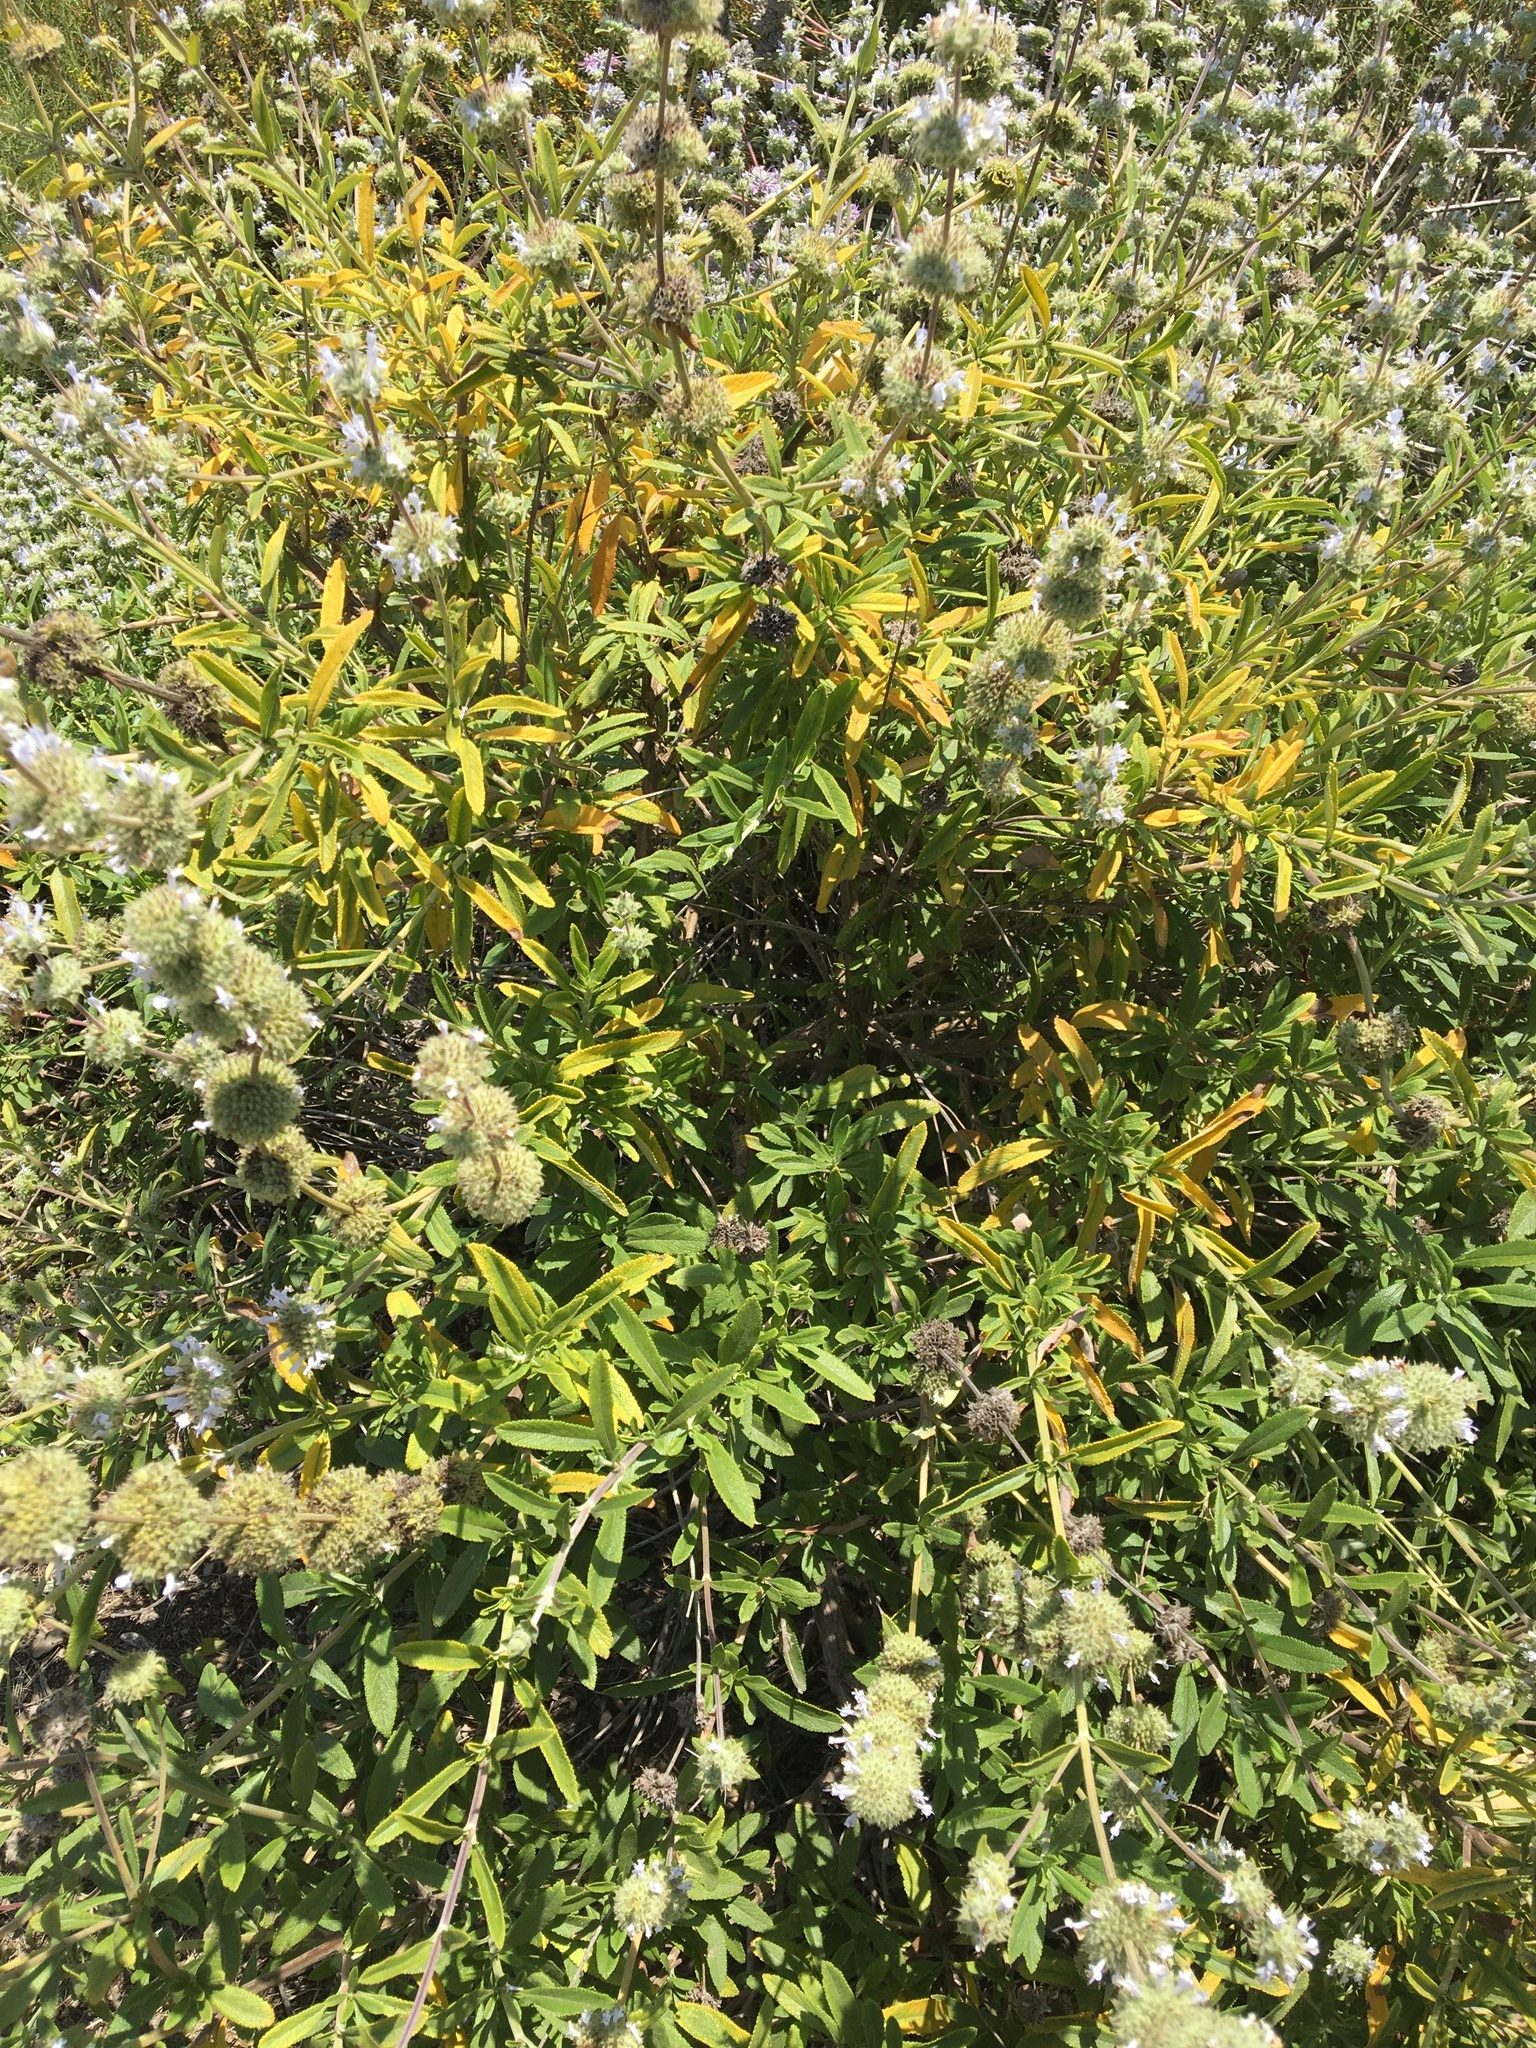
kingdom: Plantae
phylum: Tracheophyta
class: Magnoliopsida
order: Lamiales
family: Lamiaceae
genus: Salvia
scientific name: Salvia mellifera
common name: Black sage
